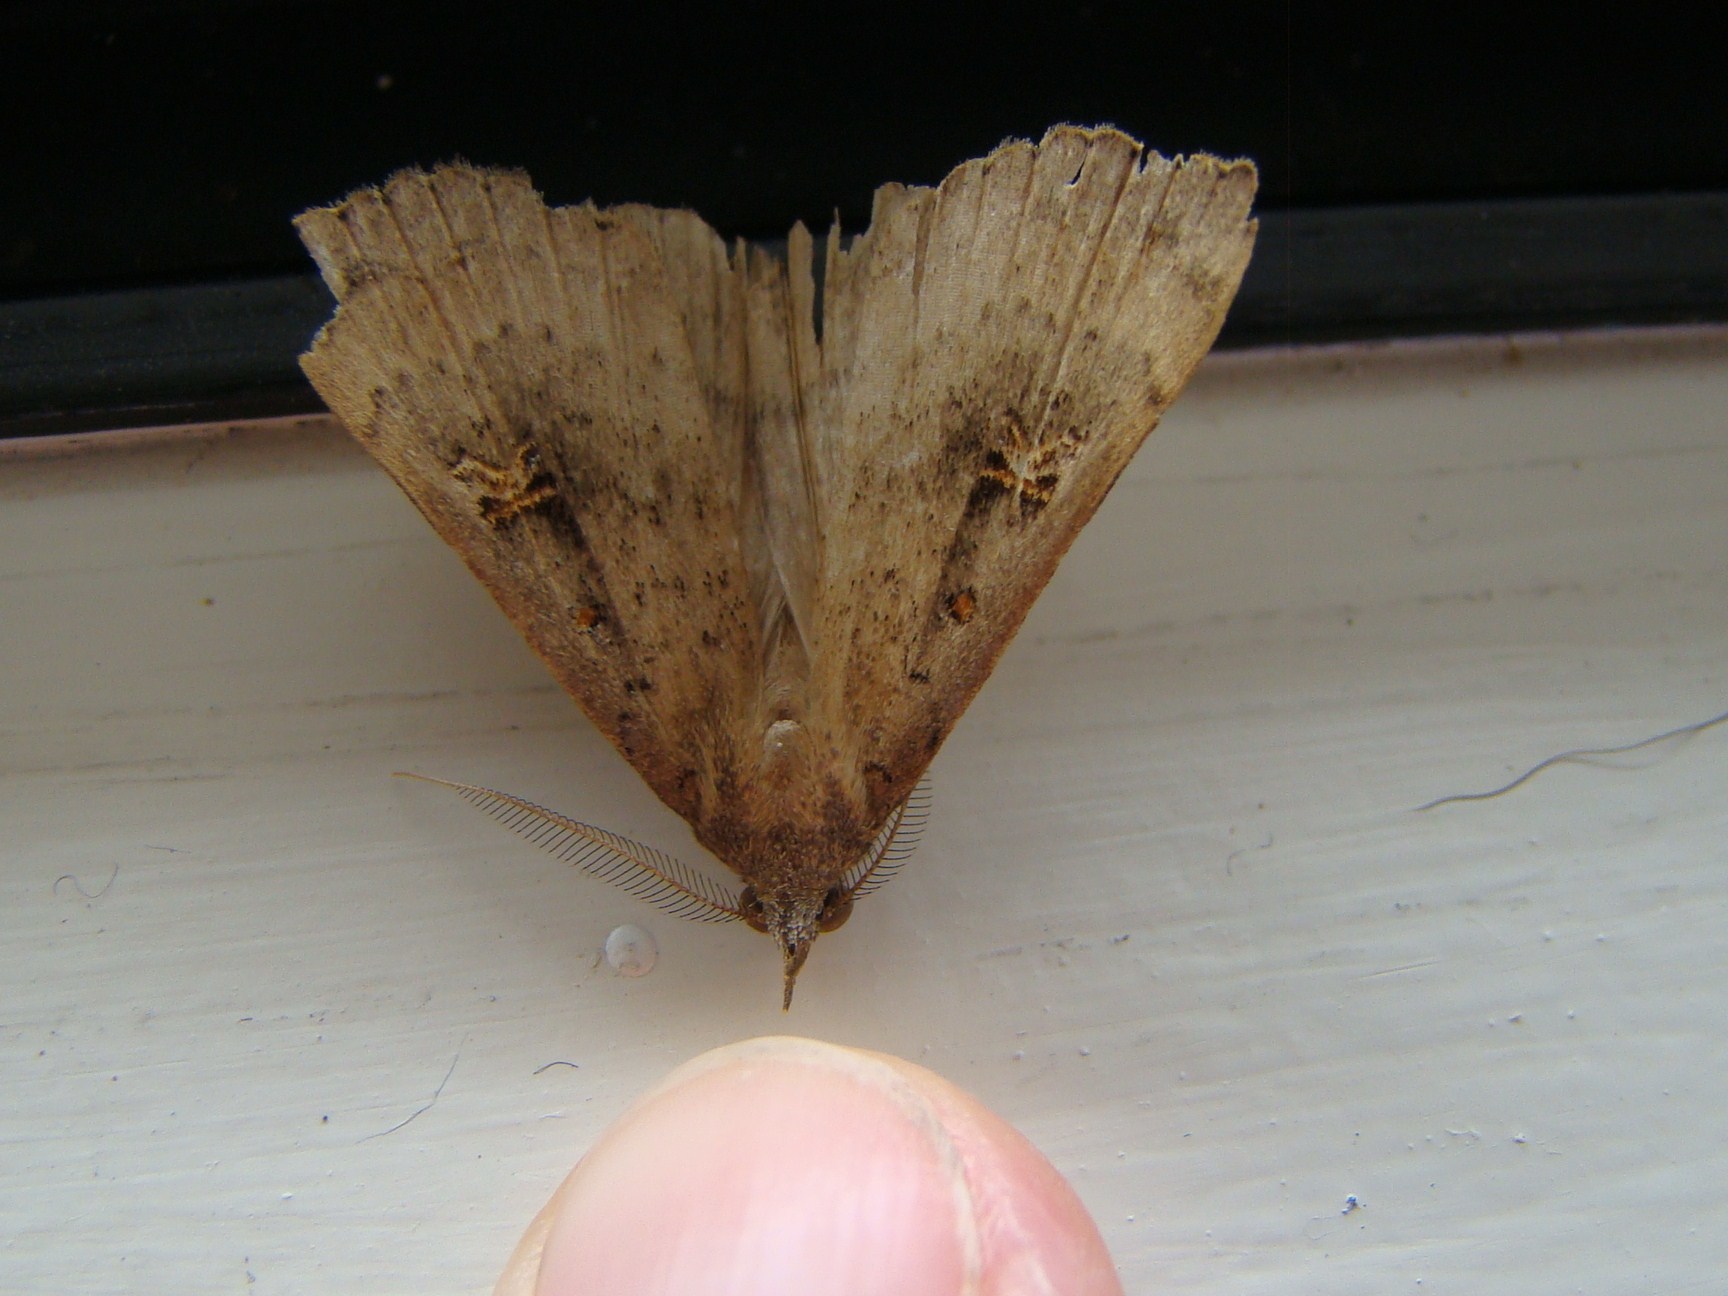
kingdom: Animalia
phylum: Arthropoda
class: Insecta
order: Lepidoptera
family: Erebidae
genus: Rhapsa
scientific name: Rhapsa scotosialis
